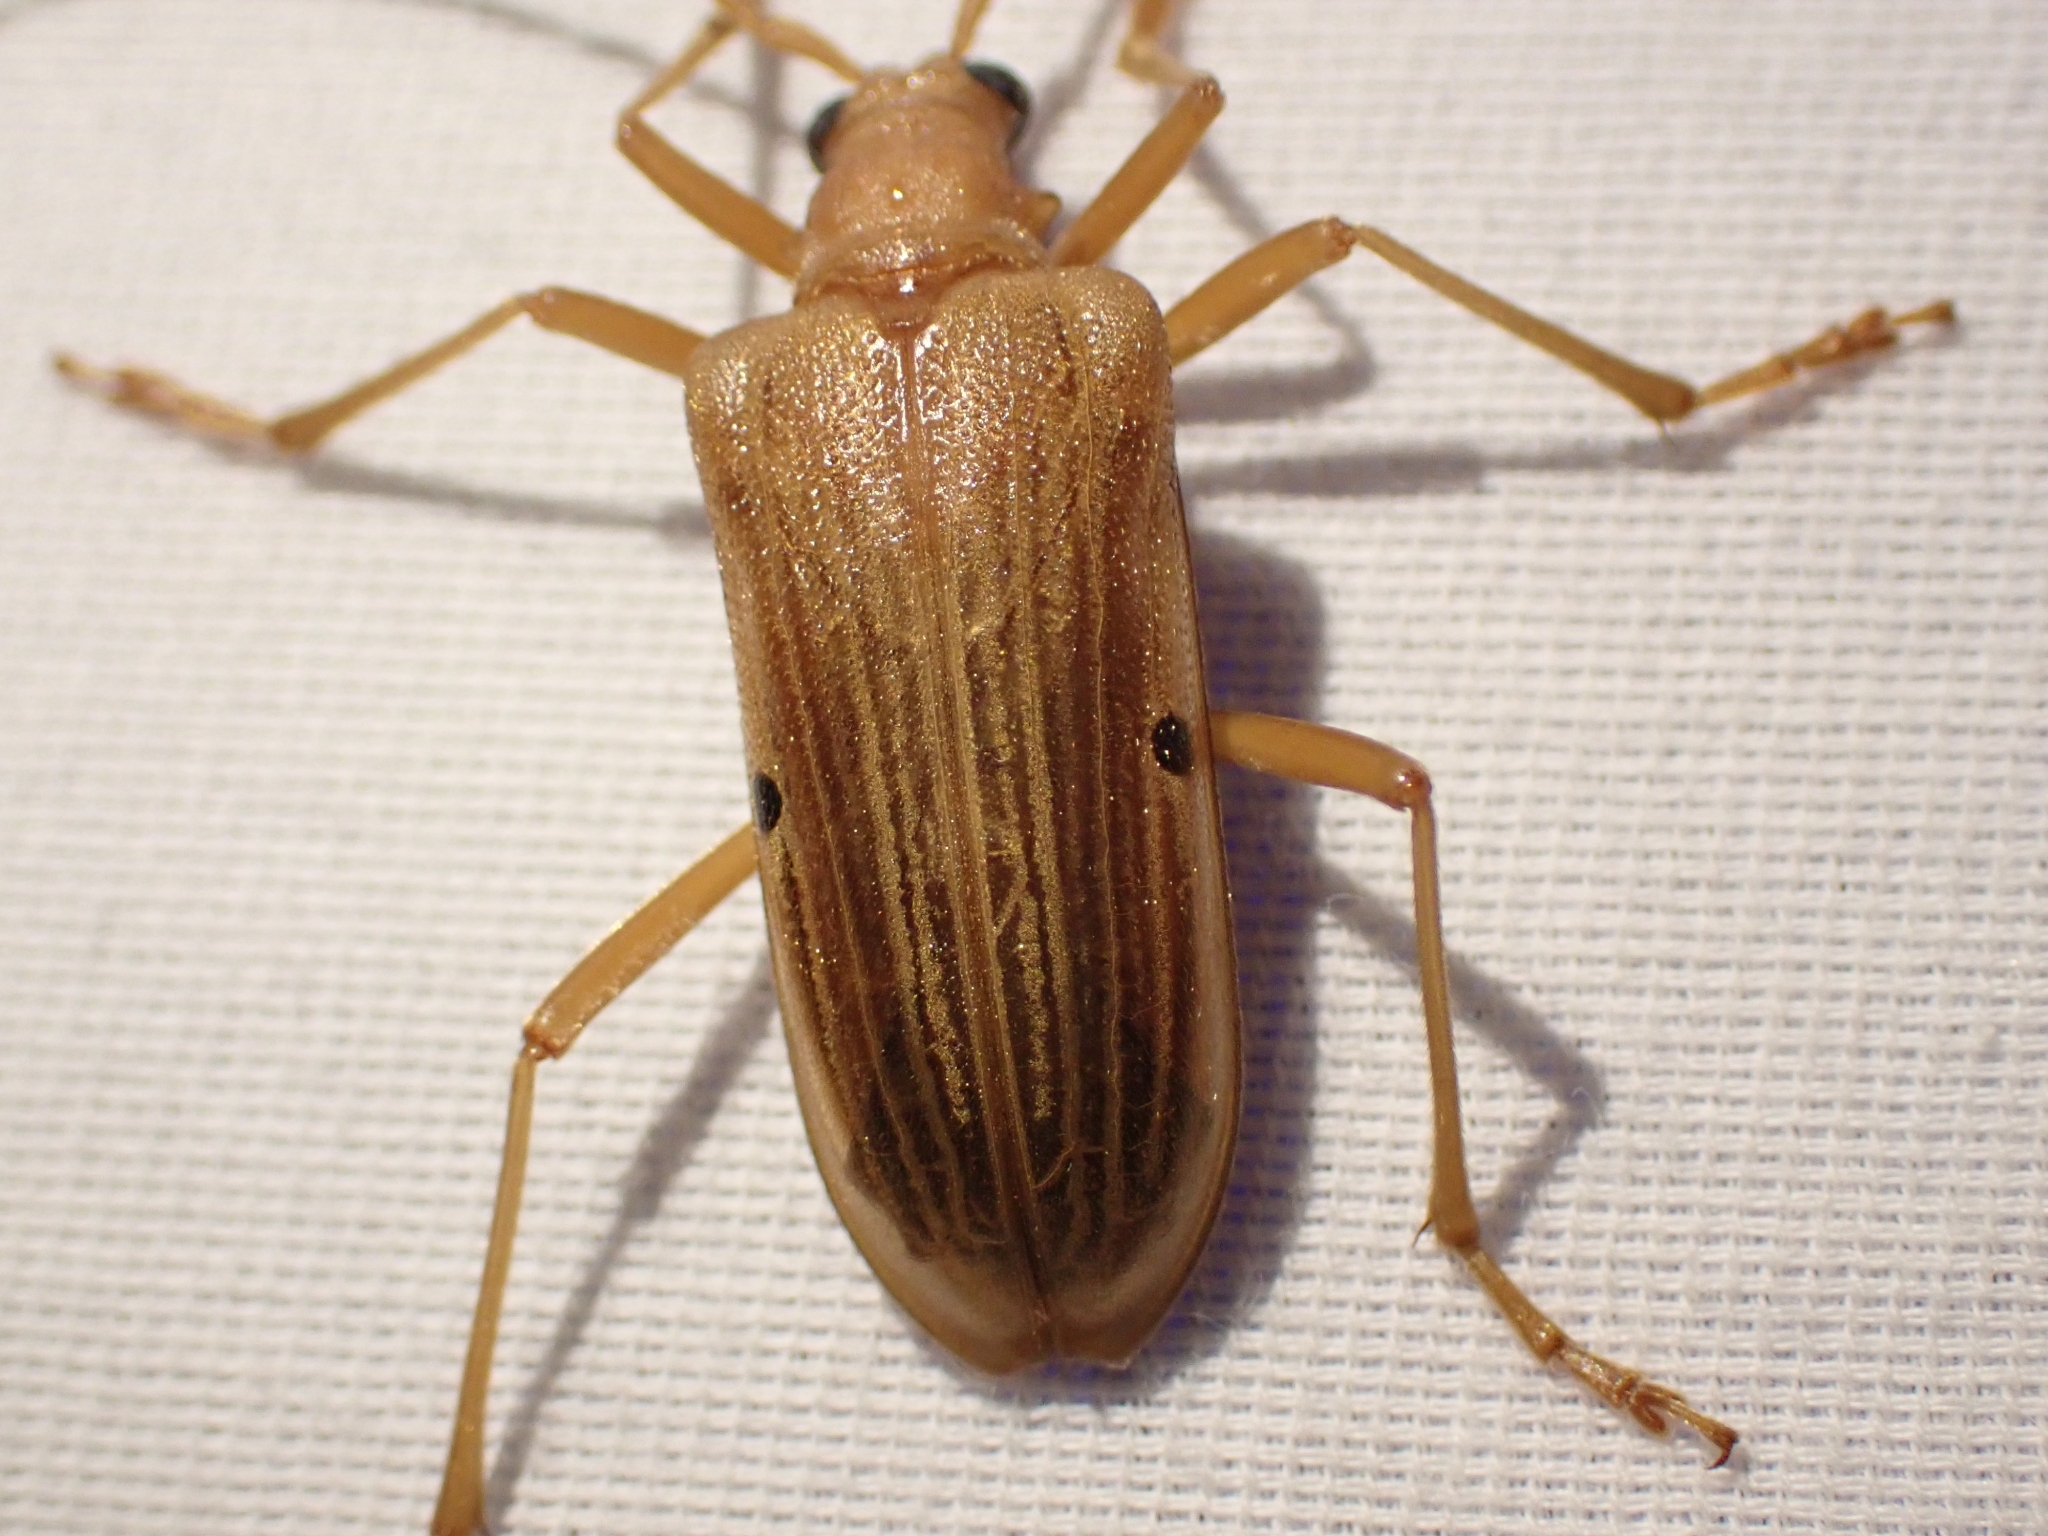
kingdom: Animalia
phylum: Arthropoda
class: Insecta
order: Coleoptera
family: Cerambycidae
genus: Centrodera
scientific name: Centrodera spurca
